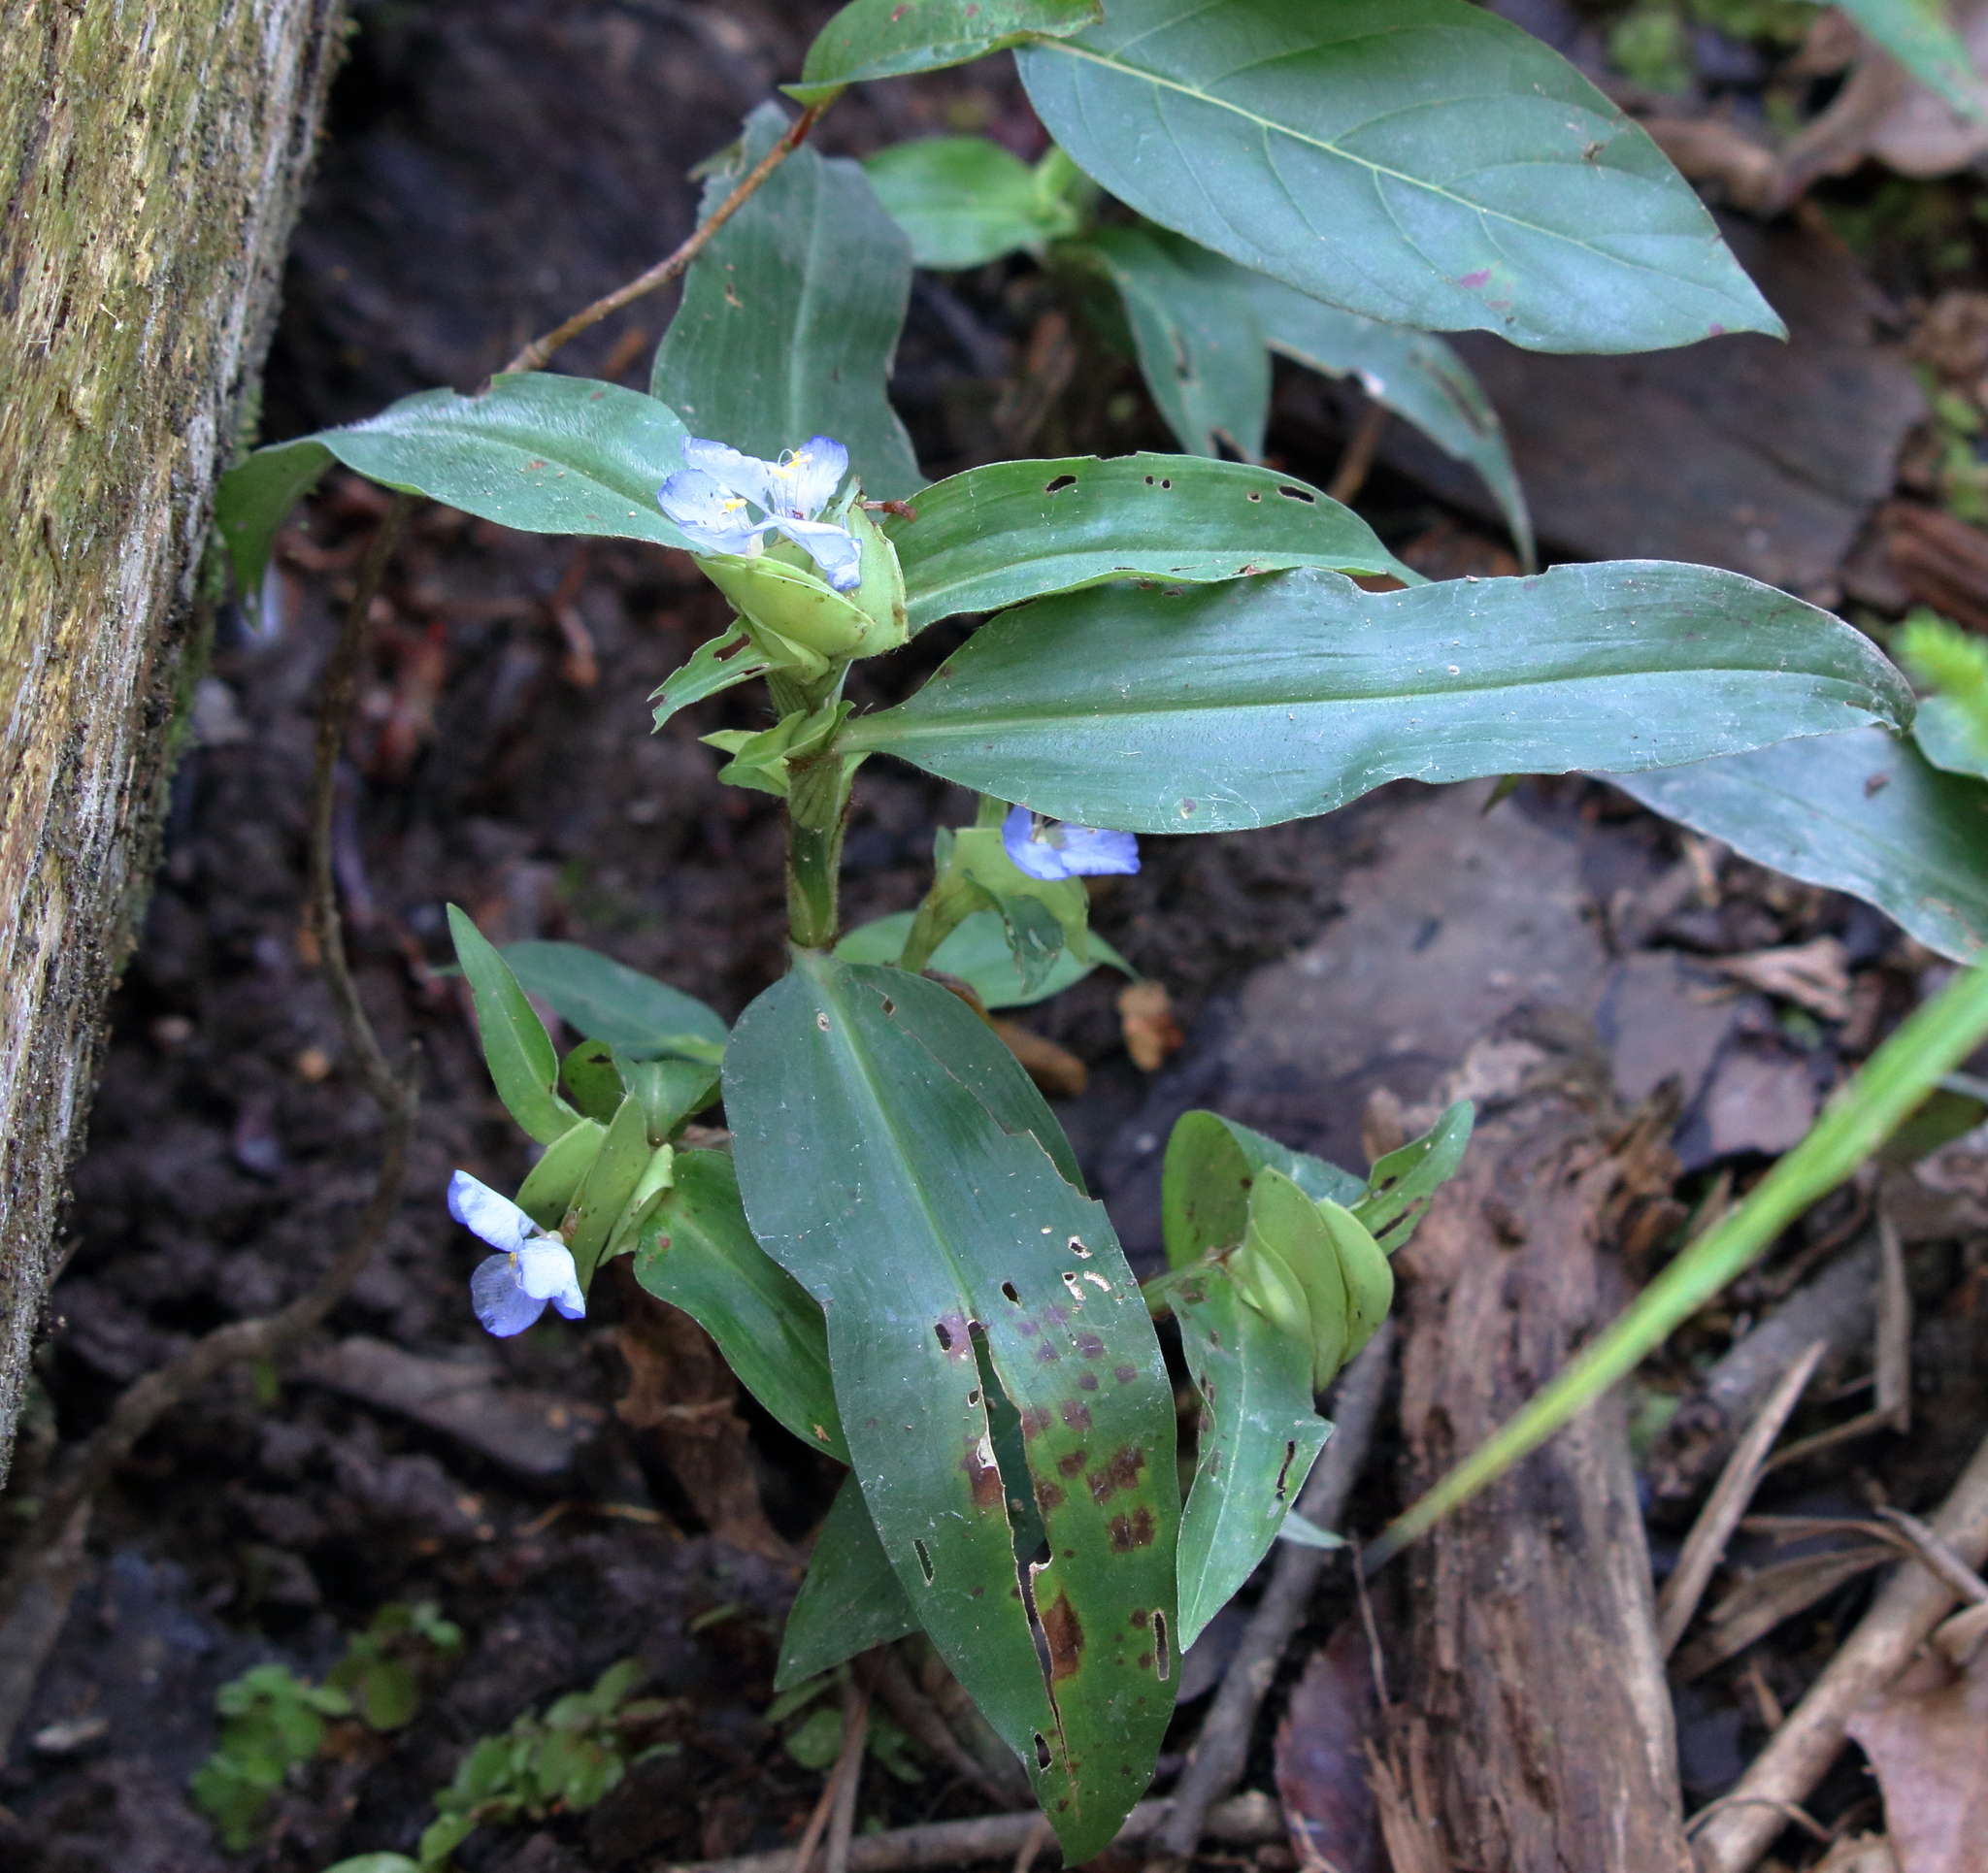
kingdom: Plantae
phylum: Tracheophyta
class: Liliopsida
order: Commelinales
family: Commelinaceae
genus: Commelina
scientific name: Commelina virginica
